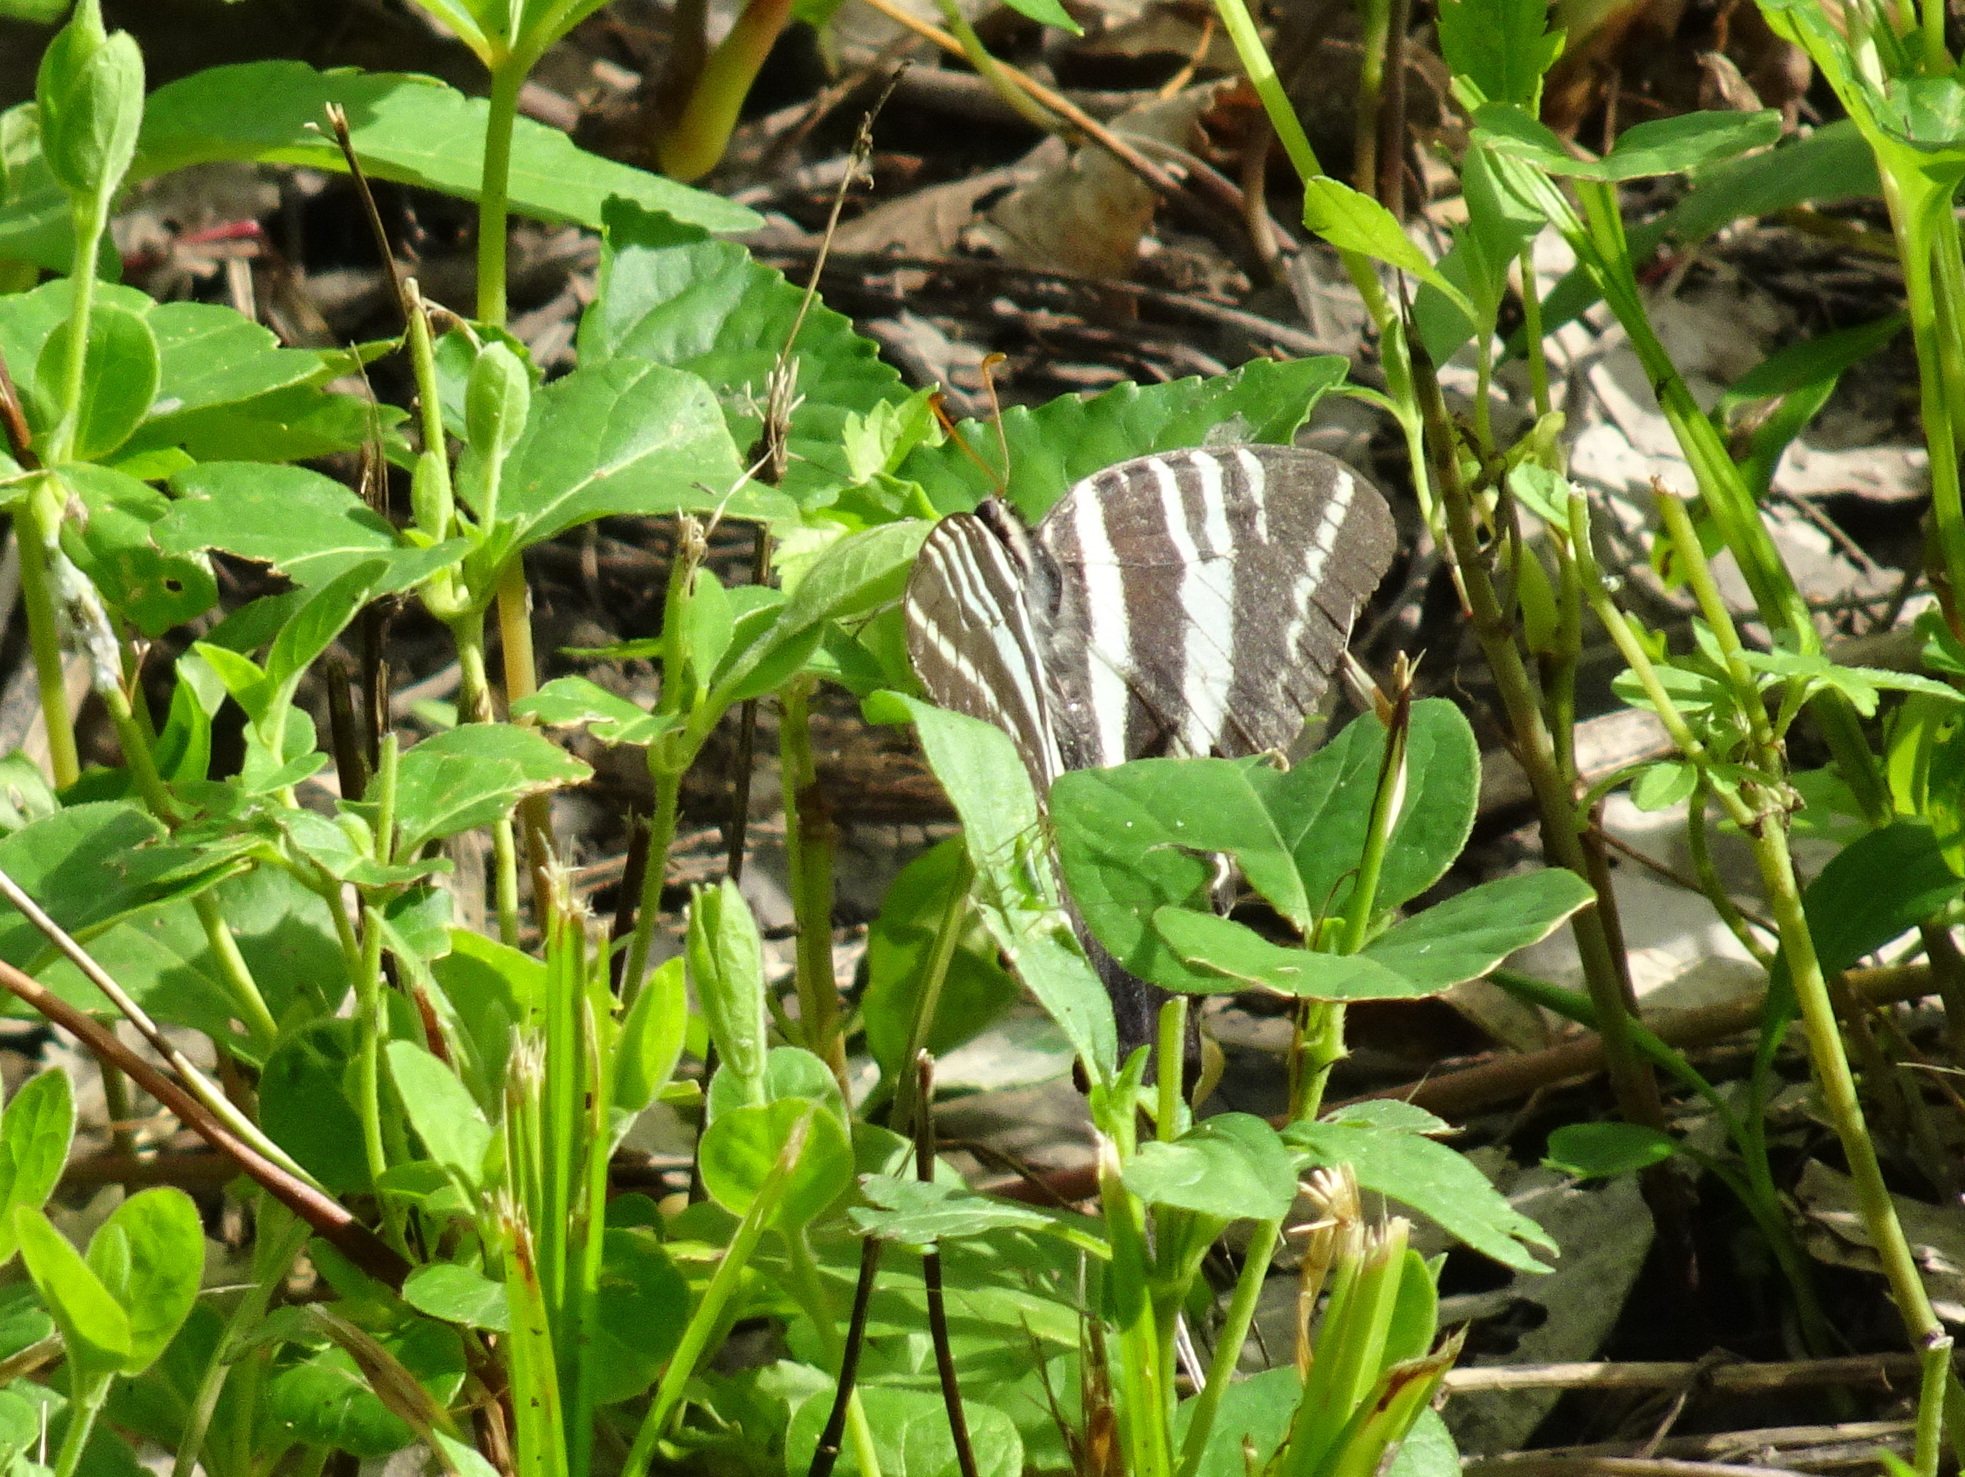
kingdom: Animalia
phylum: Arthropoda
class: Insecta
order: Lepidoptera
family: Papilionidae
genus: Protographium
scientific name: Protographium marcellus
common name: Zebra swallowtail
